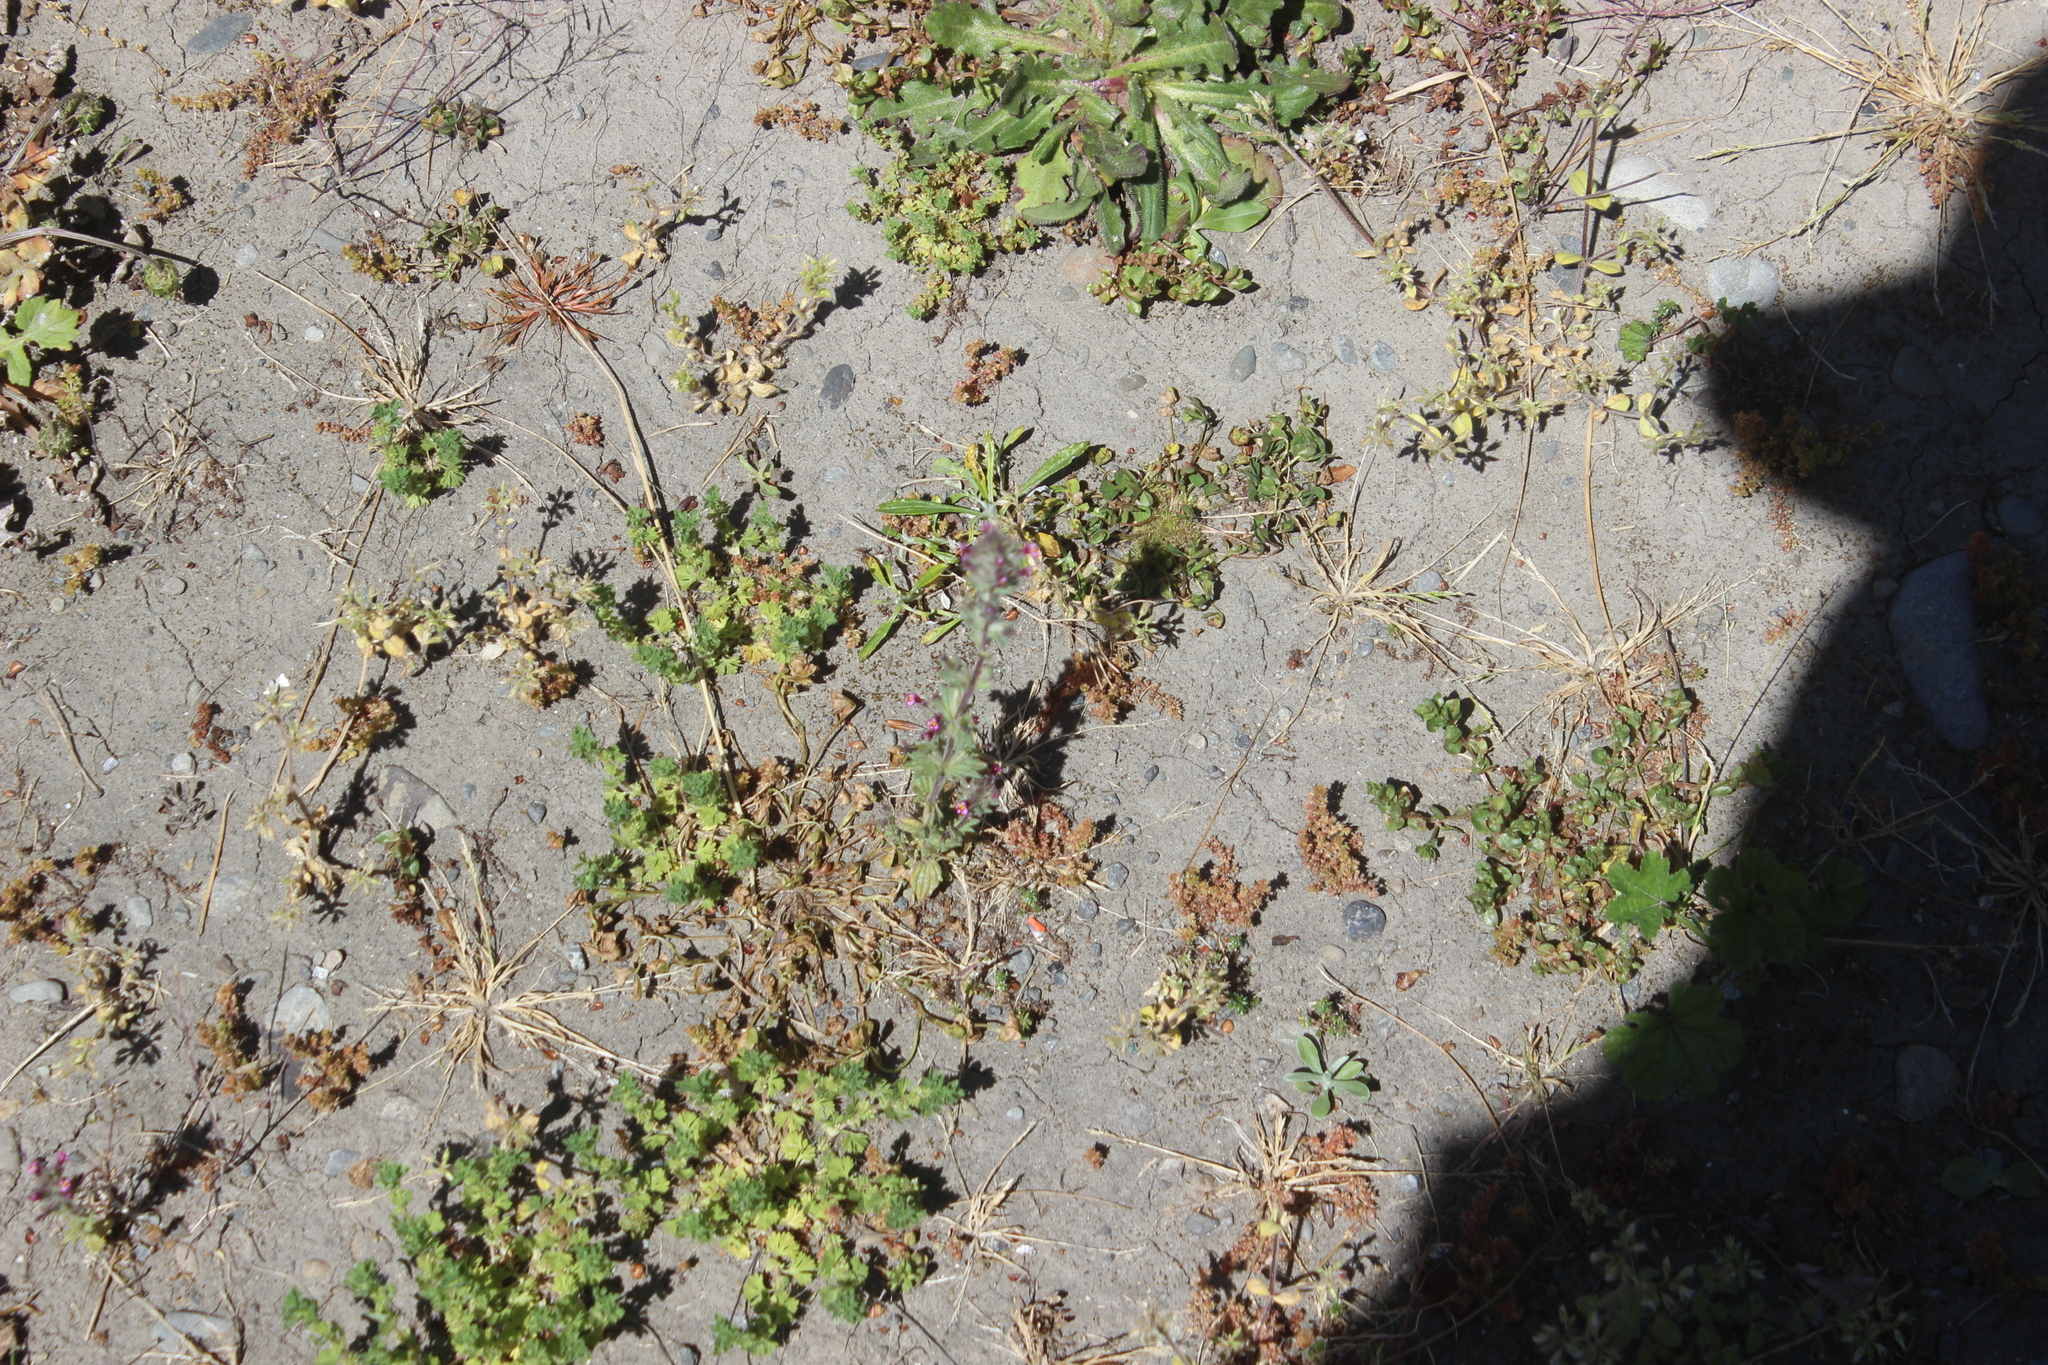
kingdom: Plantae
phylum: Tracheophyta
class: Magnoliopsida
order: Lamiales
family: Orobanchaceae
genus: Parentucellia
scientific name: Parentucellia latifolia
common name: Broadleaf glandweed
